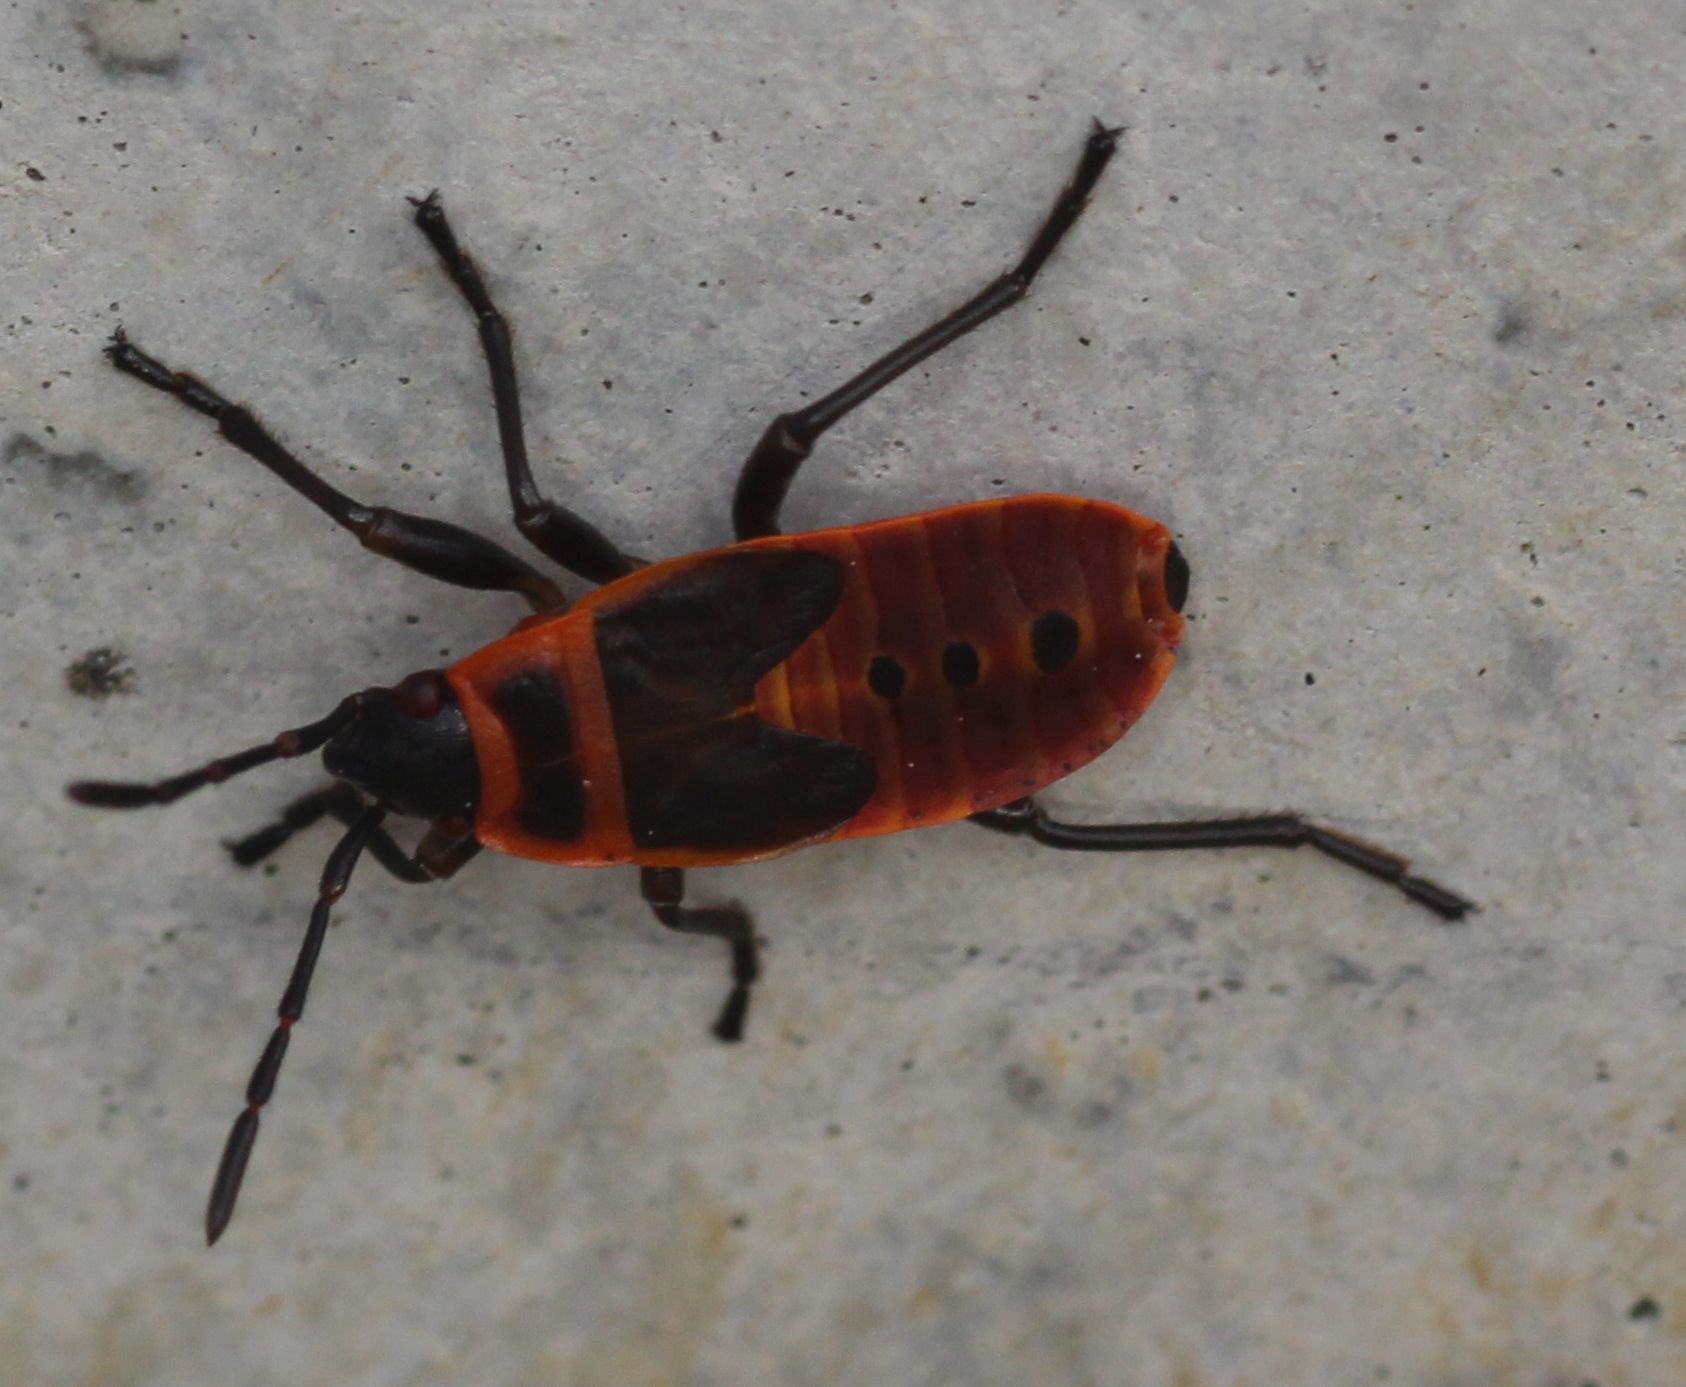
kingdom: Animalia
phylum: Arthropoda
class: Insecta
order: Hemiptera
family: Pyrrhocoridae
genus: Pyrrhocoris
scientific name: Pyrrhocoris apterus
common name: Firebug
